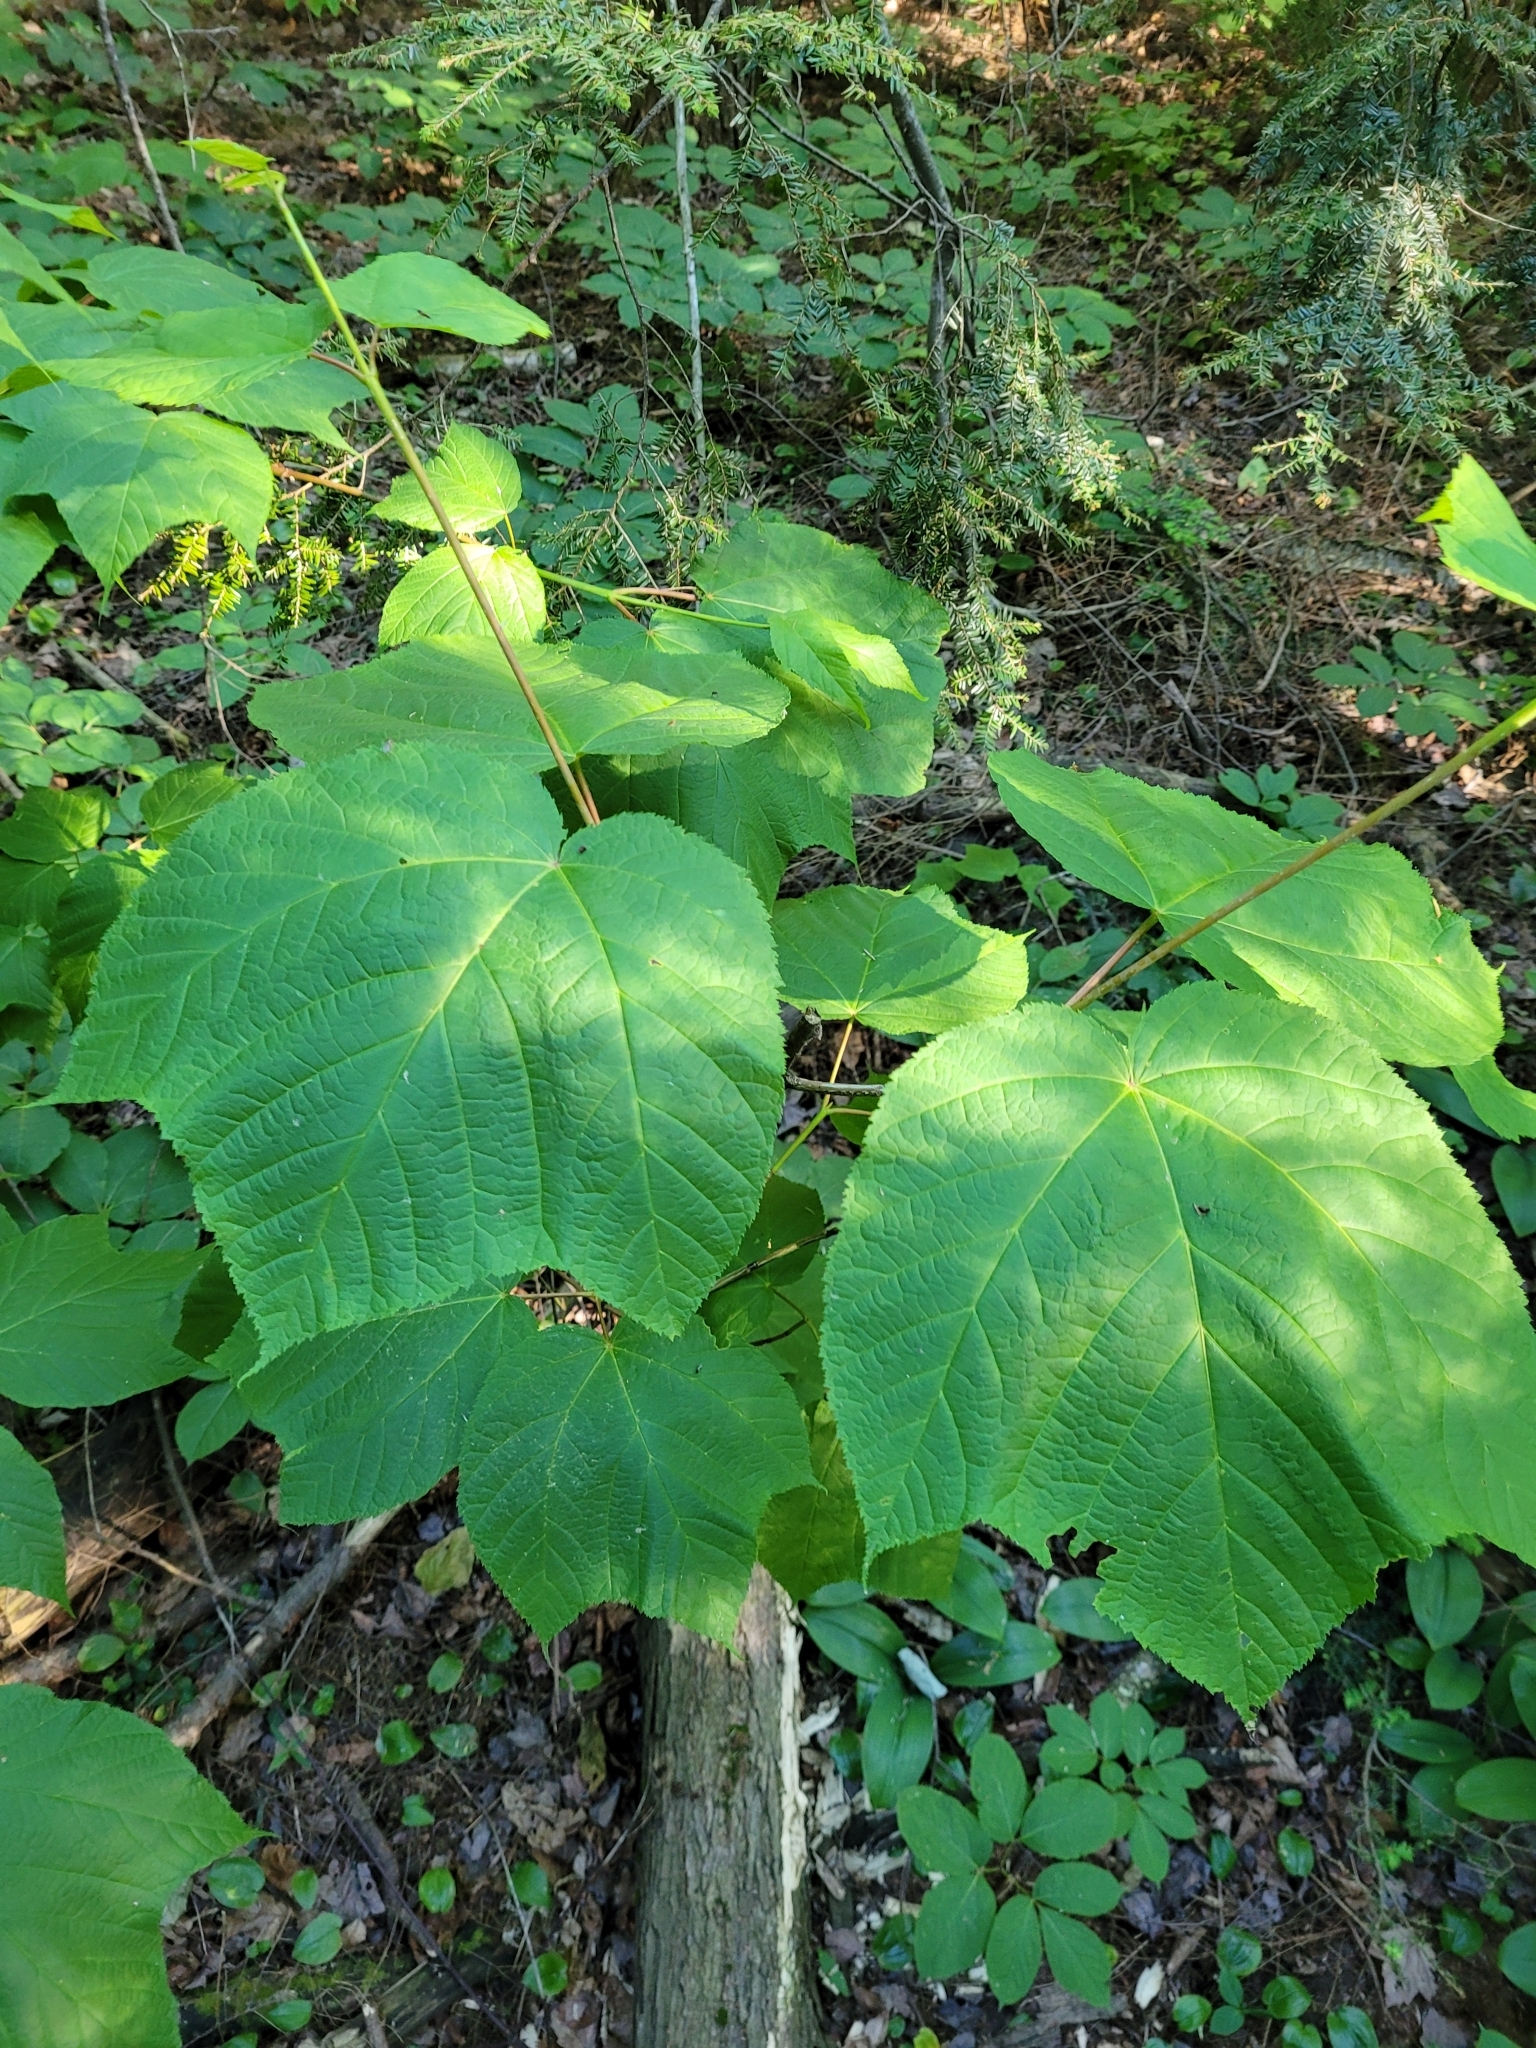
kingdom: Plantae
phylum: Tracheophyta
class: Magnoliopsida
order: Sapindales
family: Sapindaceae
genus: Acer
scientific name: Acer pensylvanicum
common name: Moosewood
